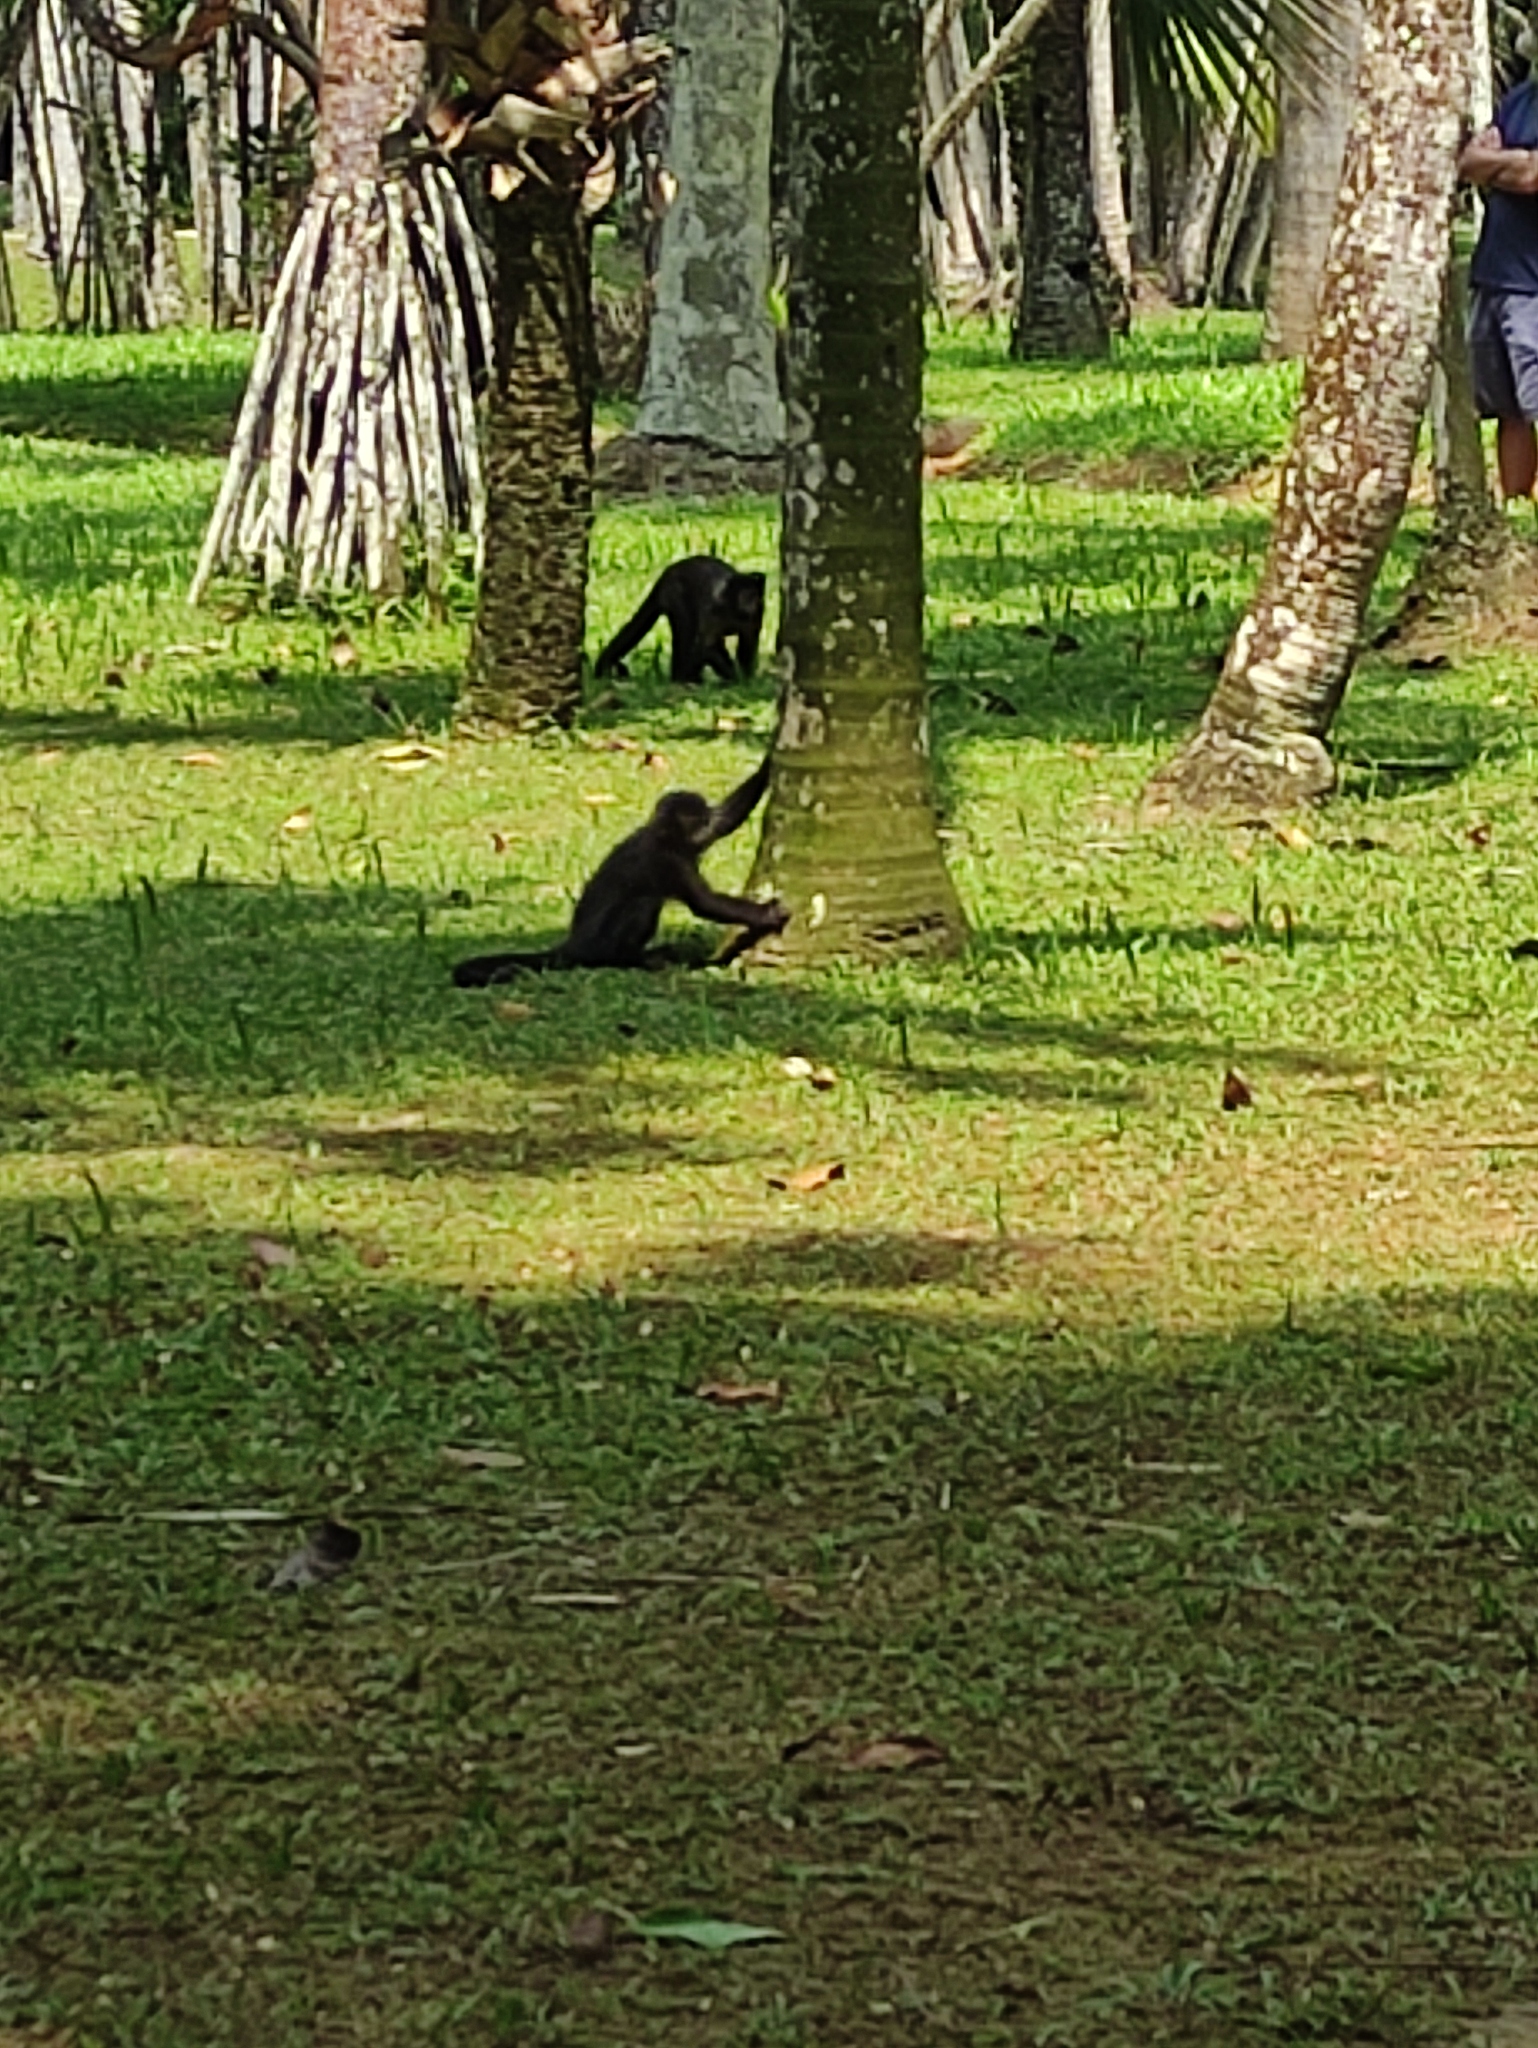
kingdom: Animalia
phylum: Chordata
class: Mammalia
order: Primates
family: Cebidae
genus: Sapajus
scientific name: Sapajus nigritus
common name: Black capuchin
